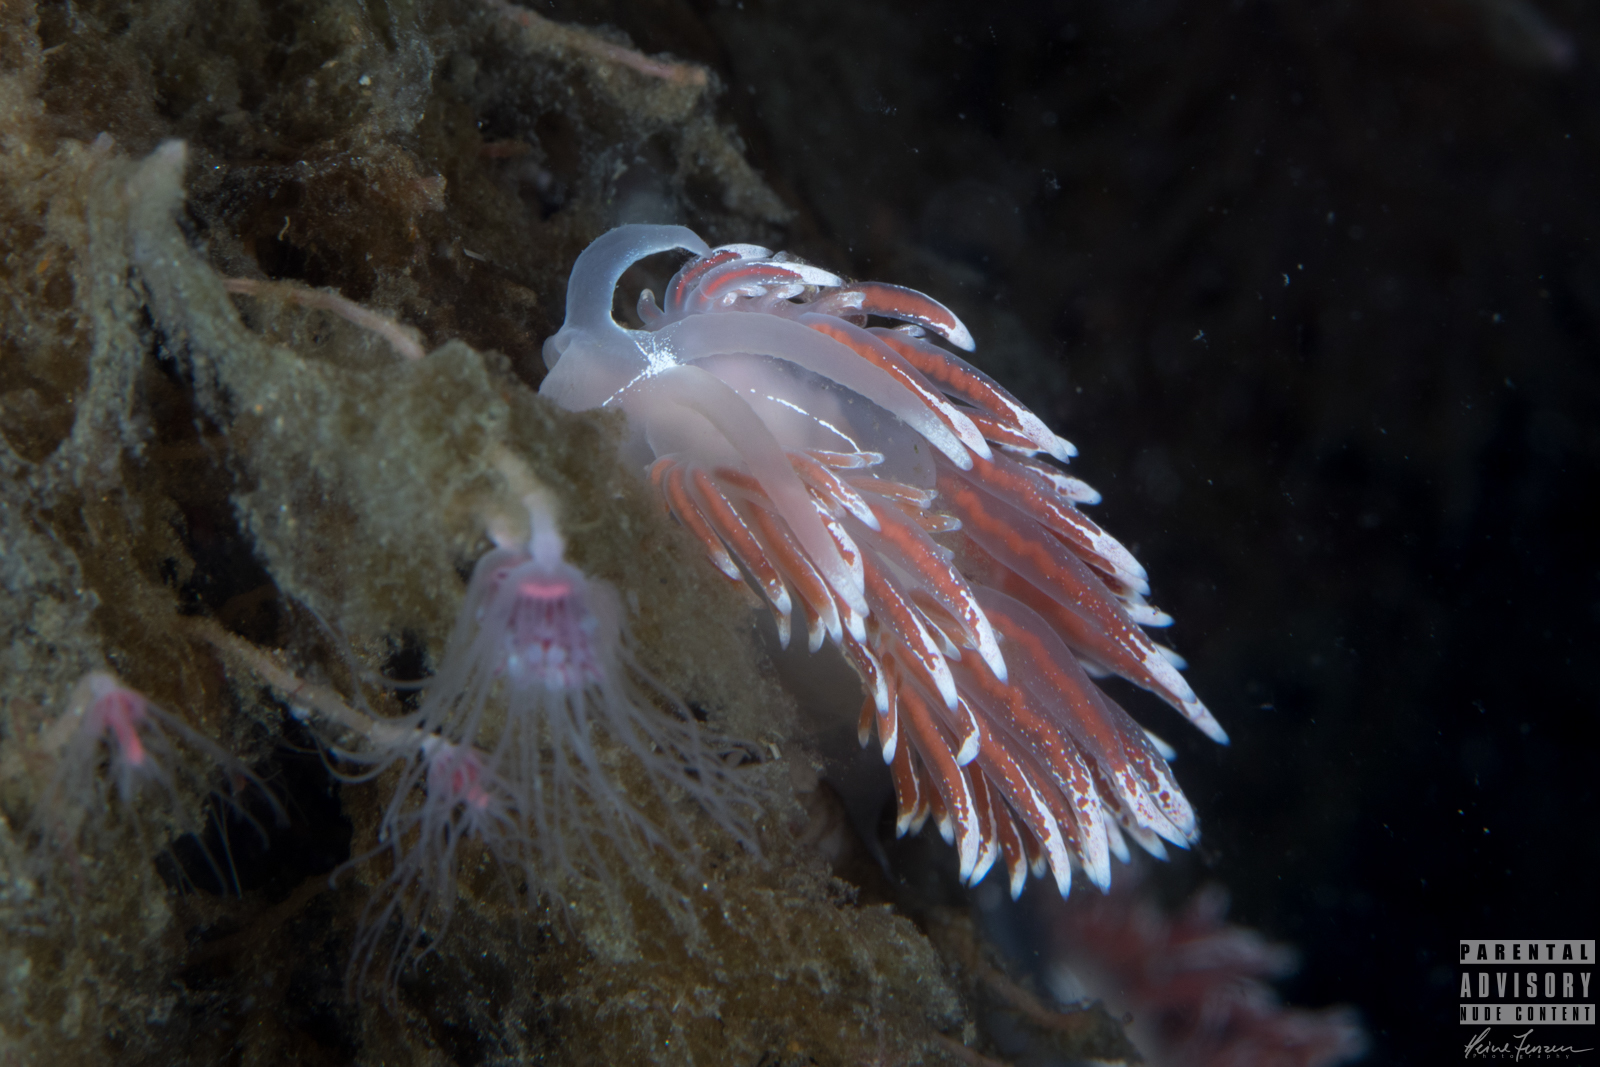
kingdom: Animalia
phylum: Mollusca
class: Gastropoda
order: Nudibranchia
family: Coryphellidae
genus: Coryphella
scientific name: Coryphella lineata
